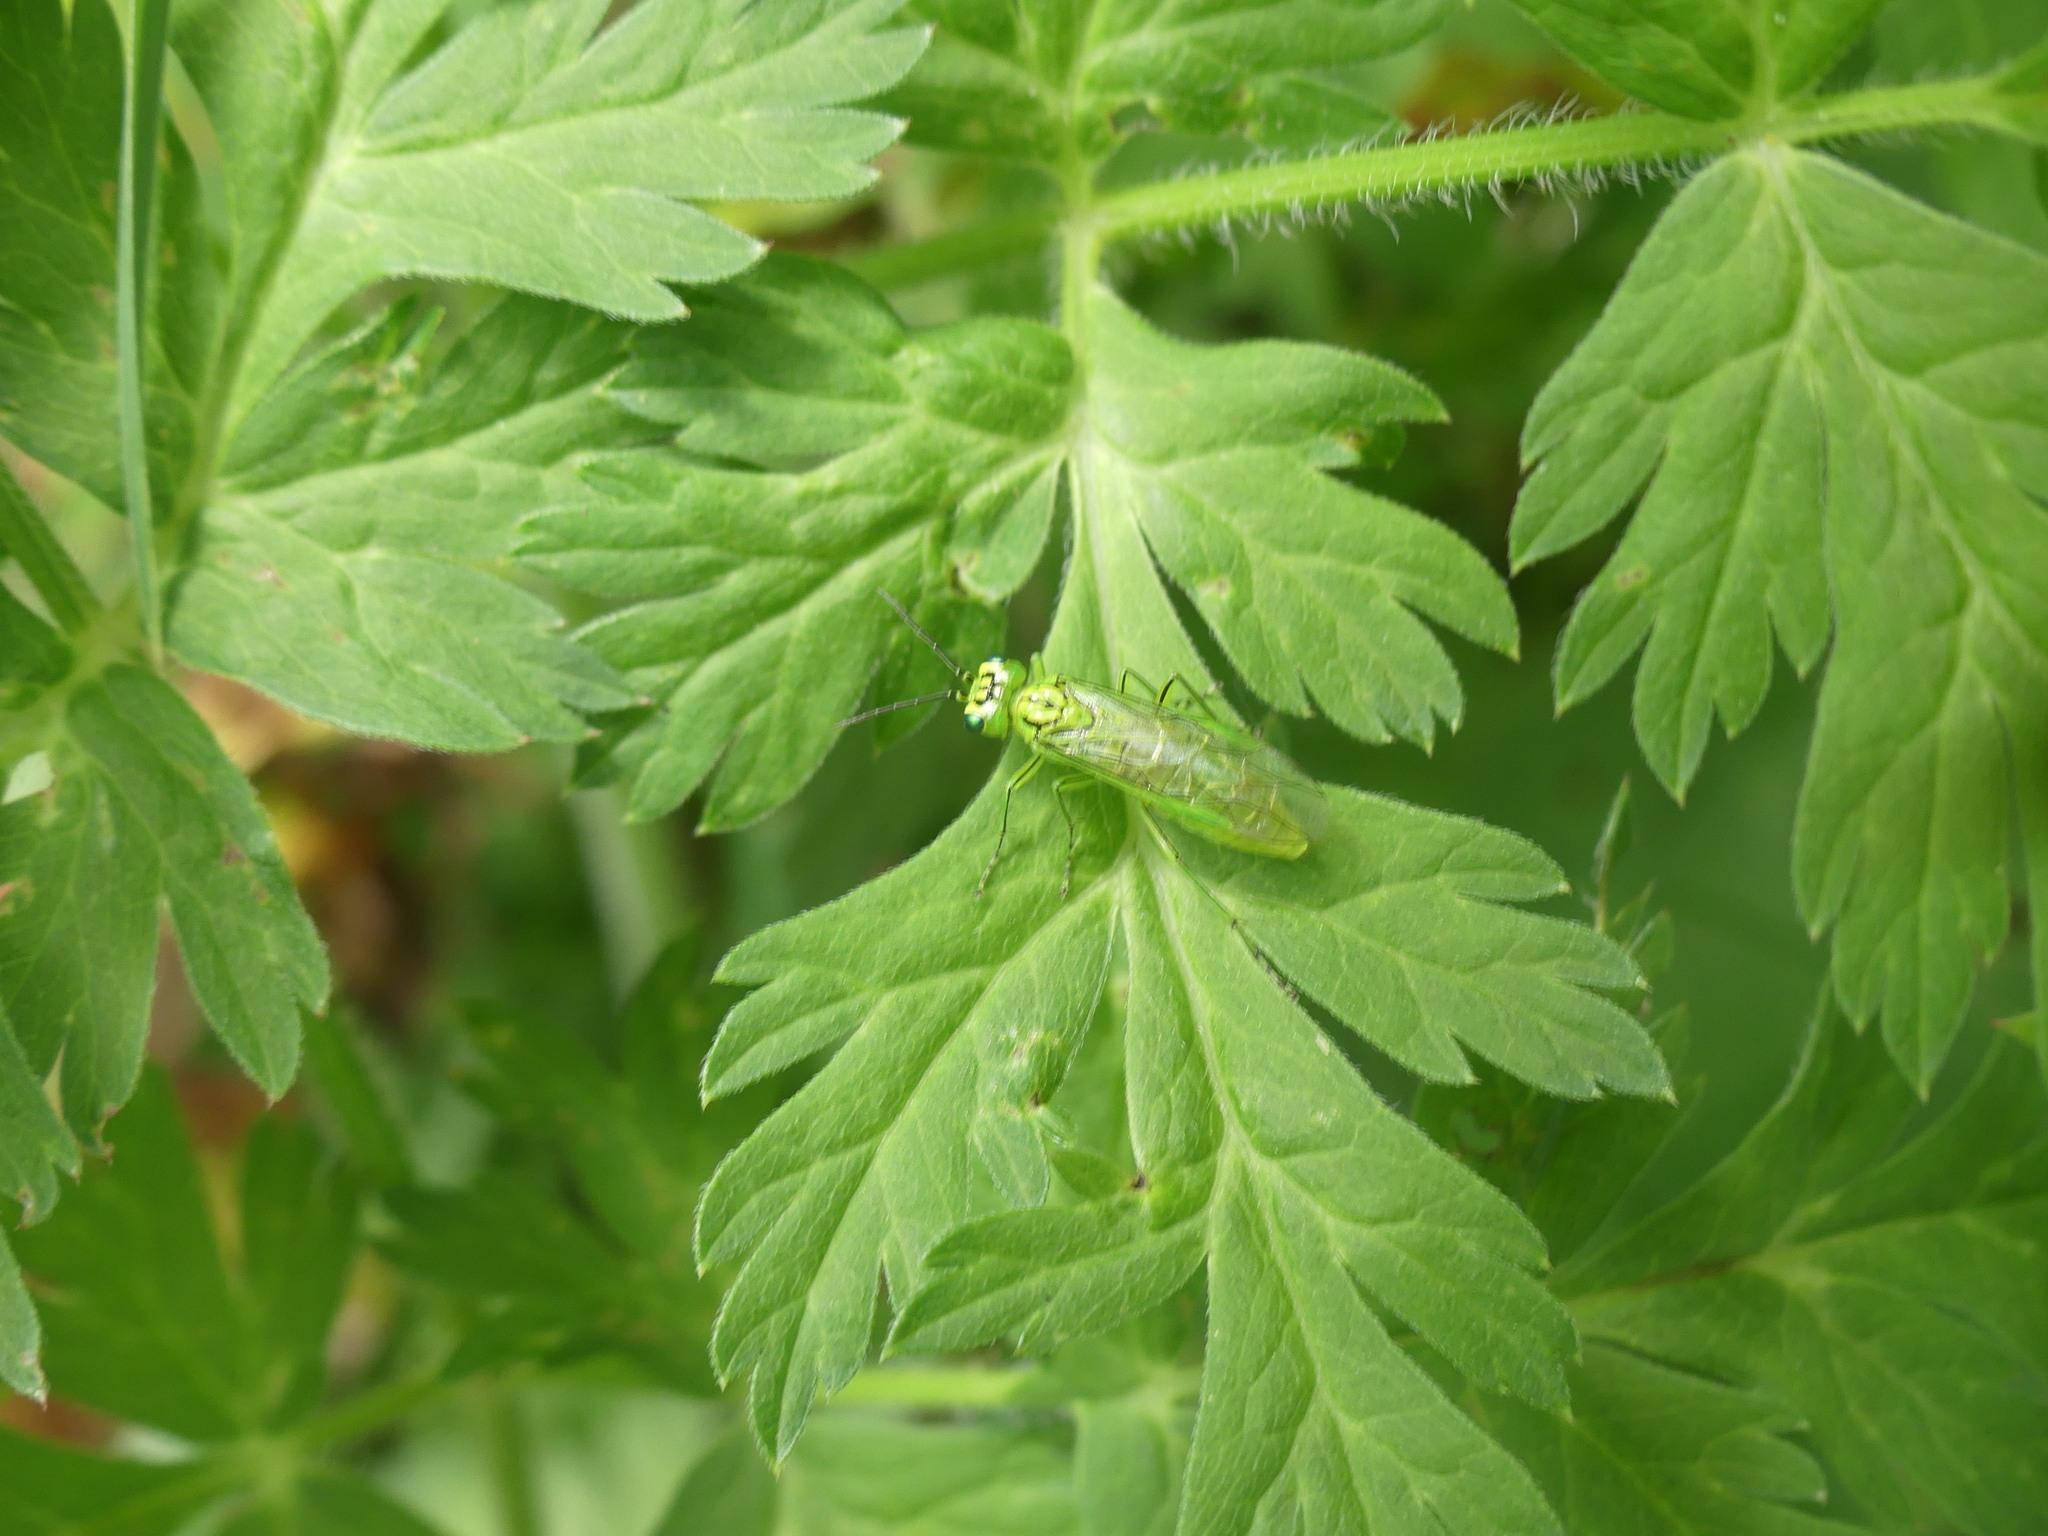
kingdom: Animalia
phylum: Arthropoda
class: Insecta
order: Hymenoptera
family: Tenthredinidae
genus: Rhogogaster
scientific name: Rhogogaster punctulata
